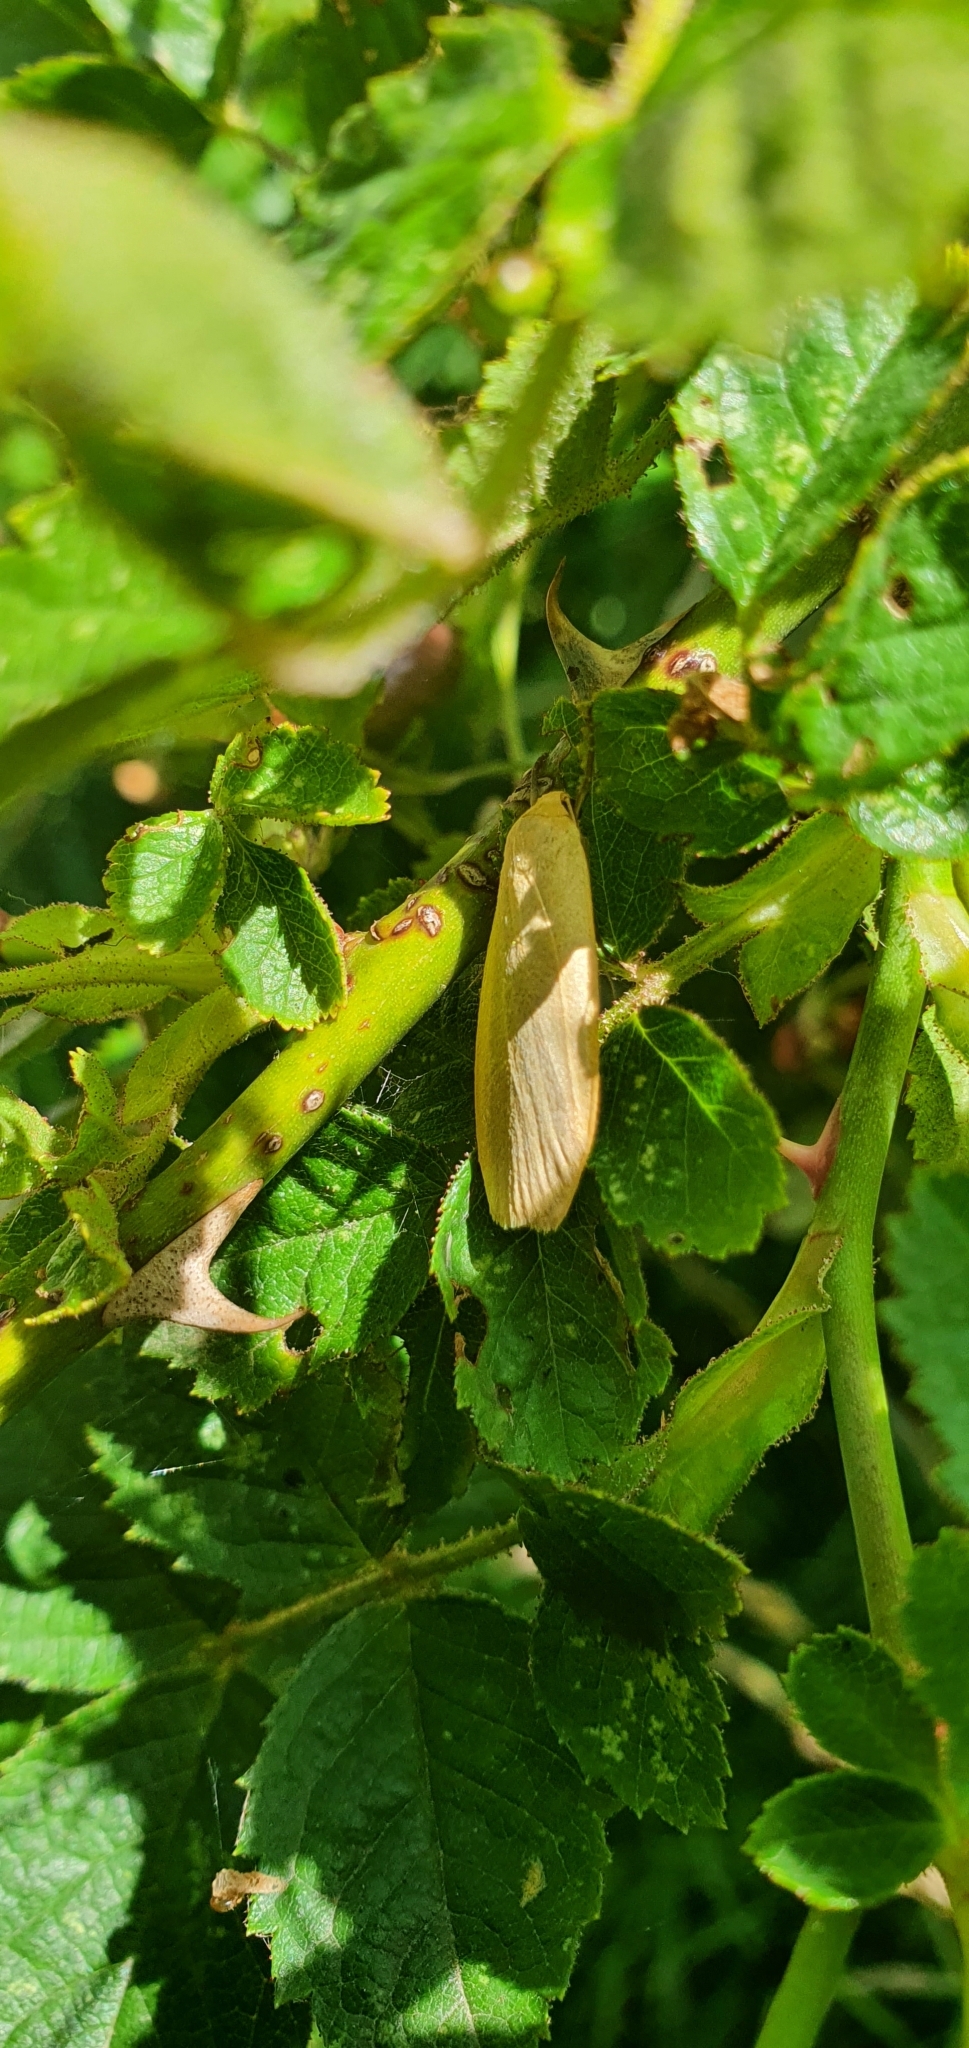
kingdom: Animalia
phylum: Arthropoda
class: Insecta
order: Lepidoptera
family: Erebidae
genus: Collita
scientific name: Collita griseola
